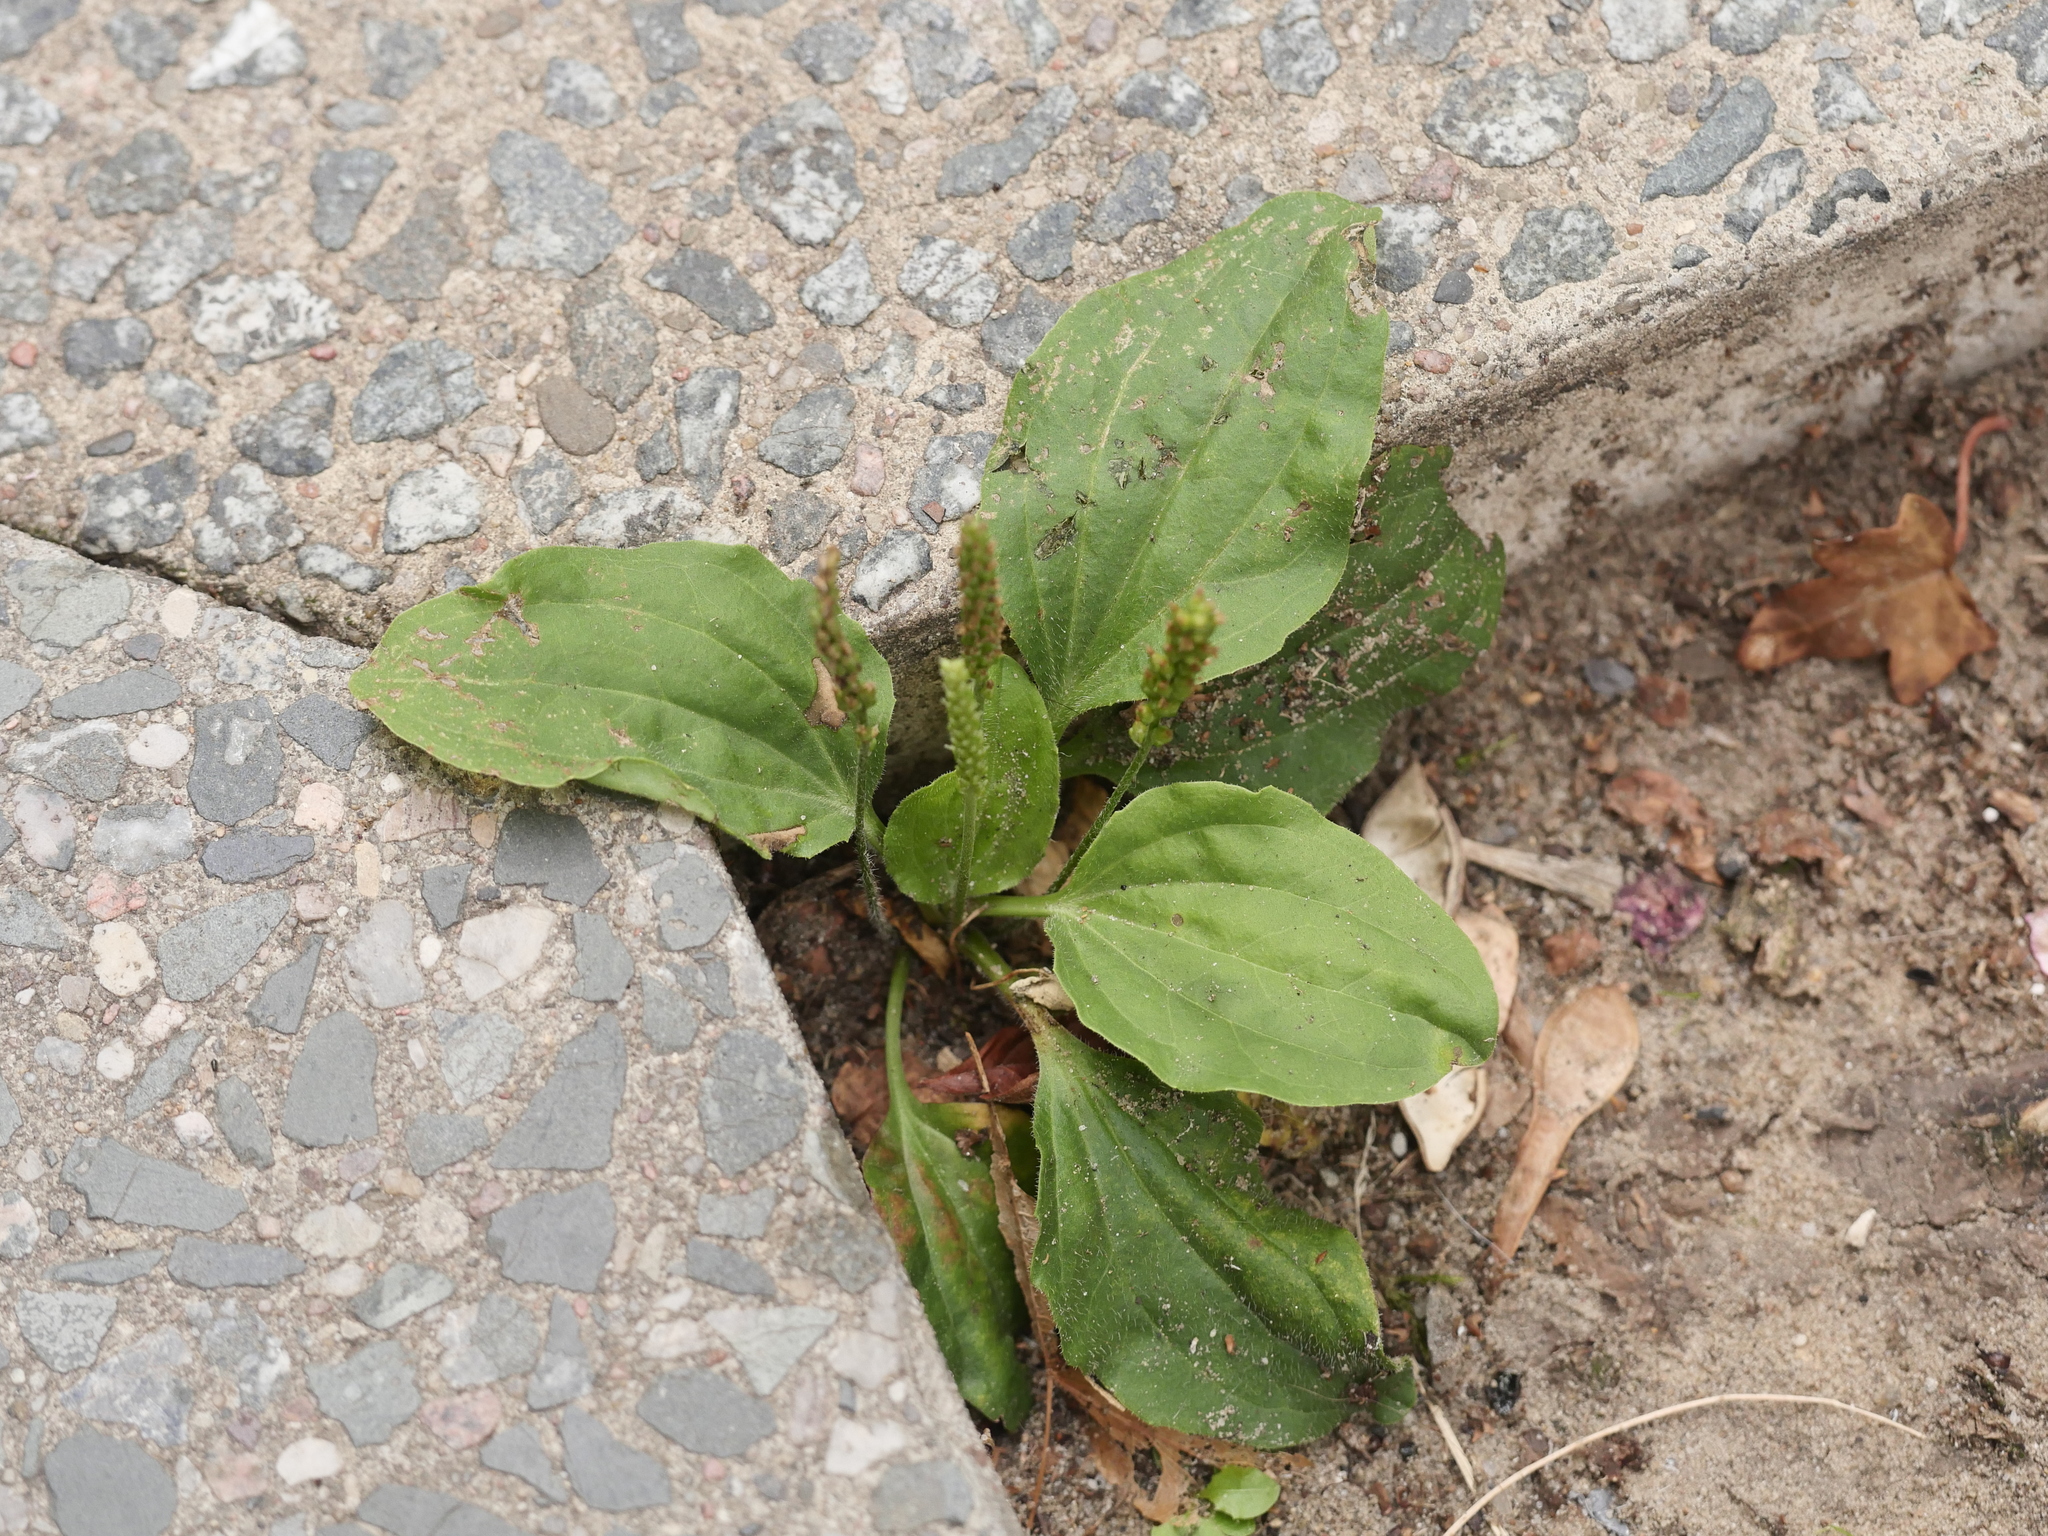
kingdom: Plantae
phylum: Tracheophyta
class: Magnoliopsida
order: Lamiales
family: Plantaginaceae
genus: Plantago
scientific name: Plantago major
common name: Common plantain
